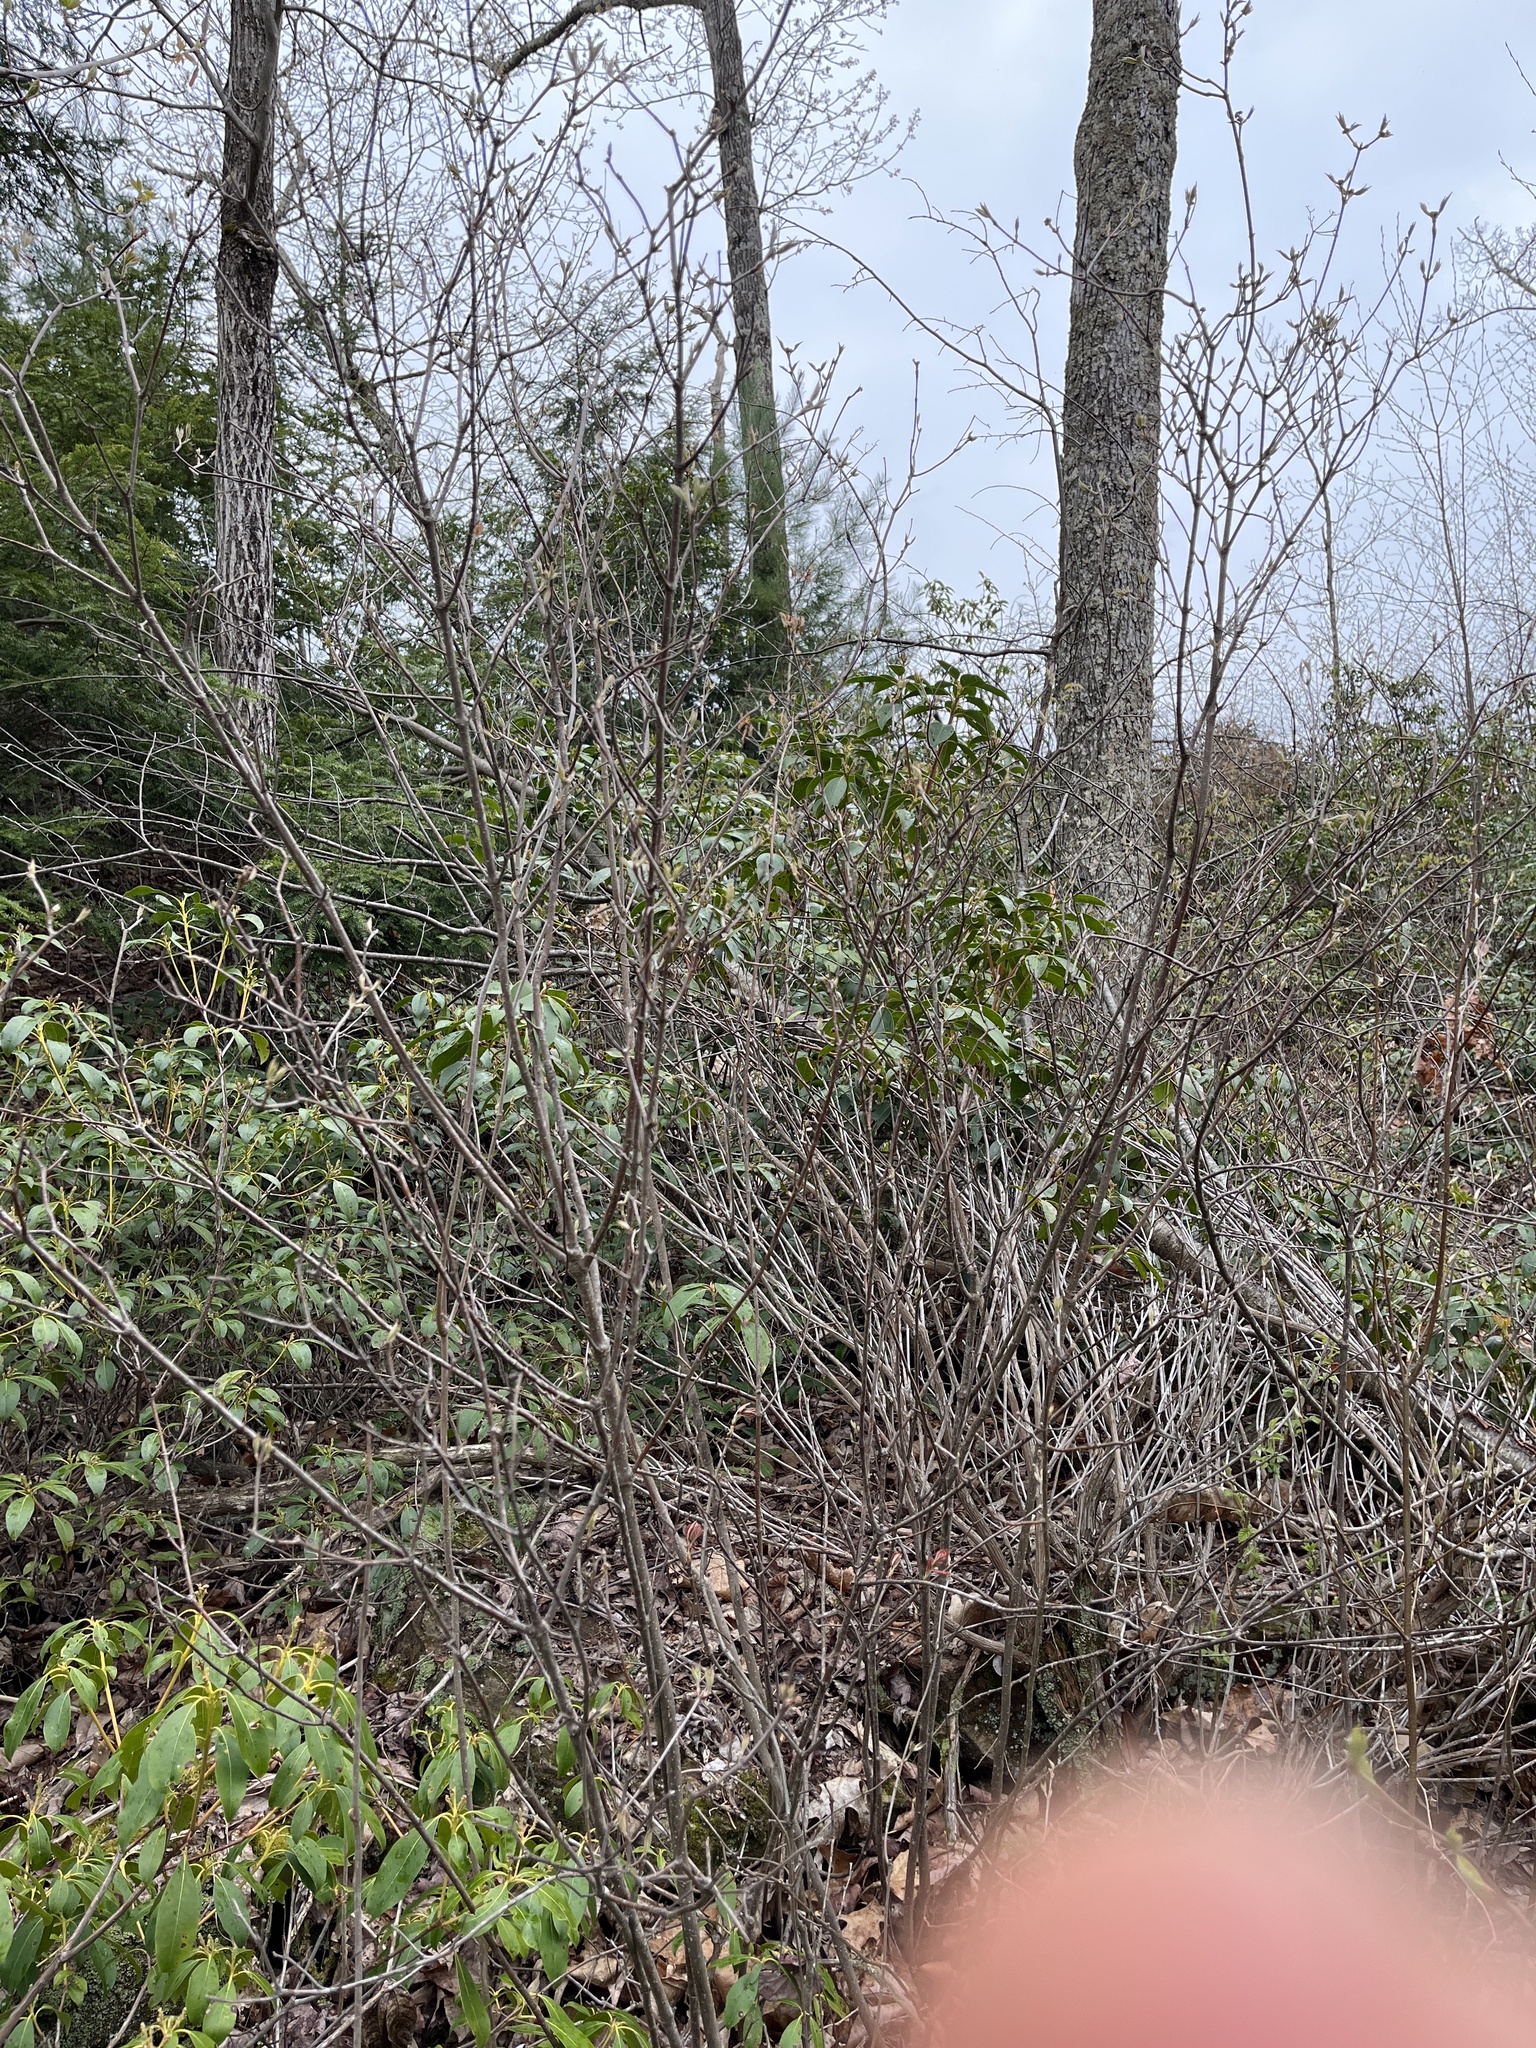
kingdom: Plantae
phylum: Tracheophyta
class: Magnoliopsida
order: Dipsacales
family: Viburnaceae
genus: Viburnum
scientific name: Viburnum acerifolium
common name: Dockmackie
